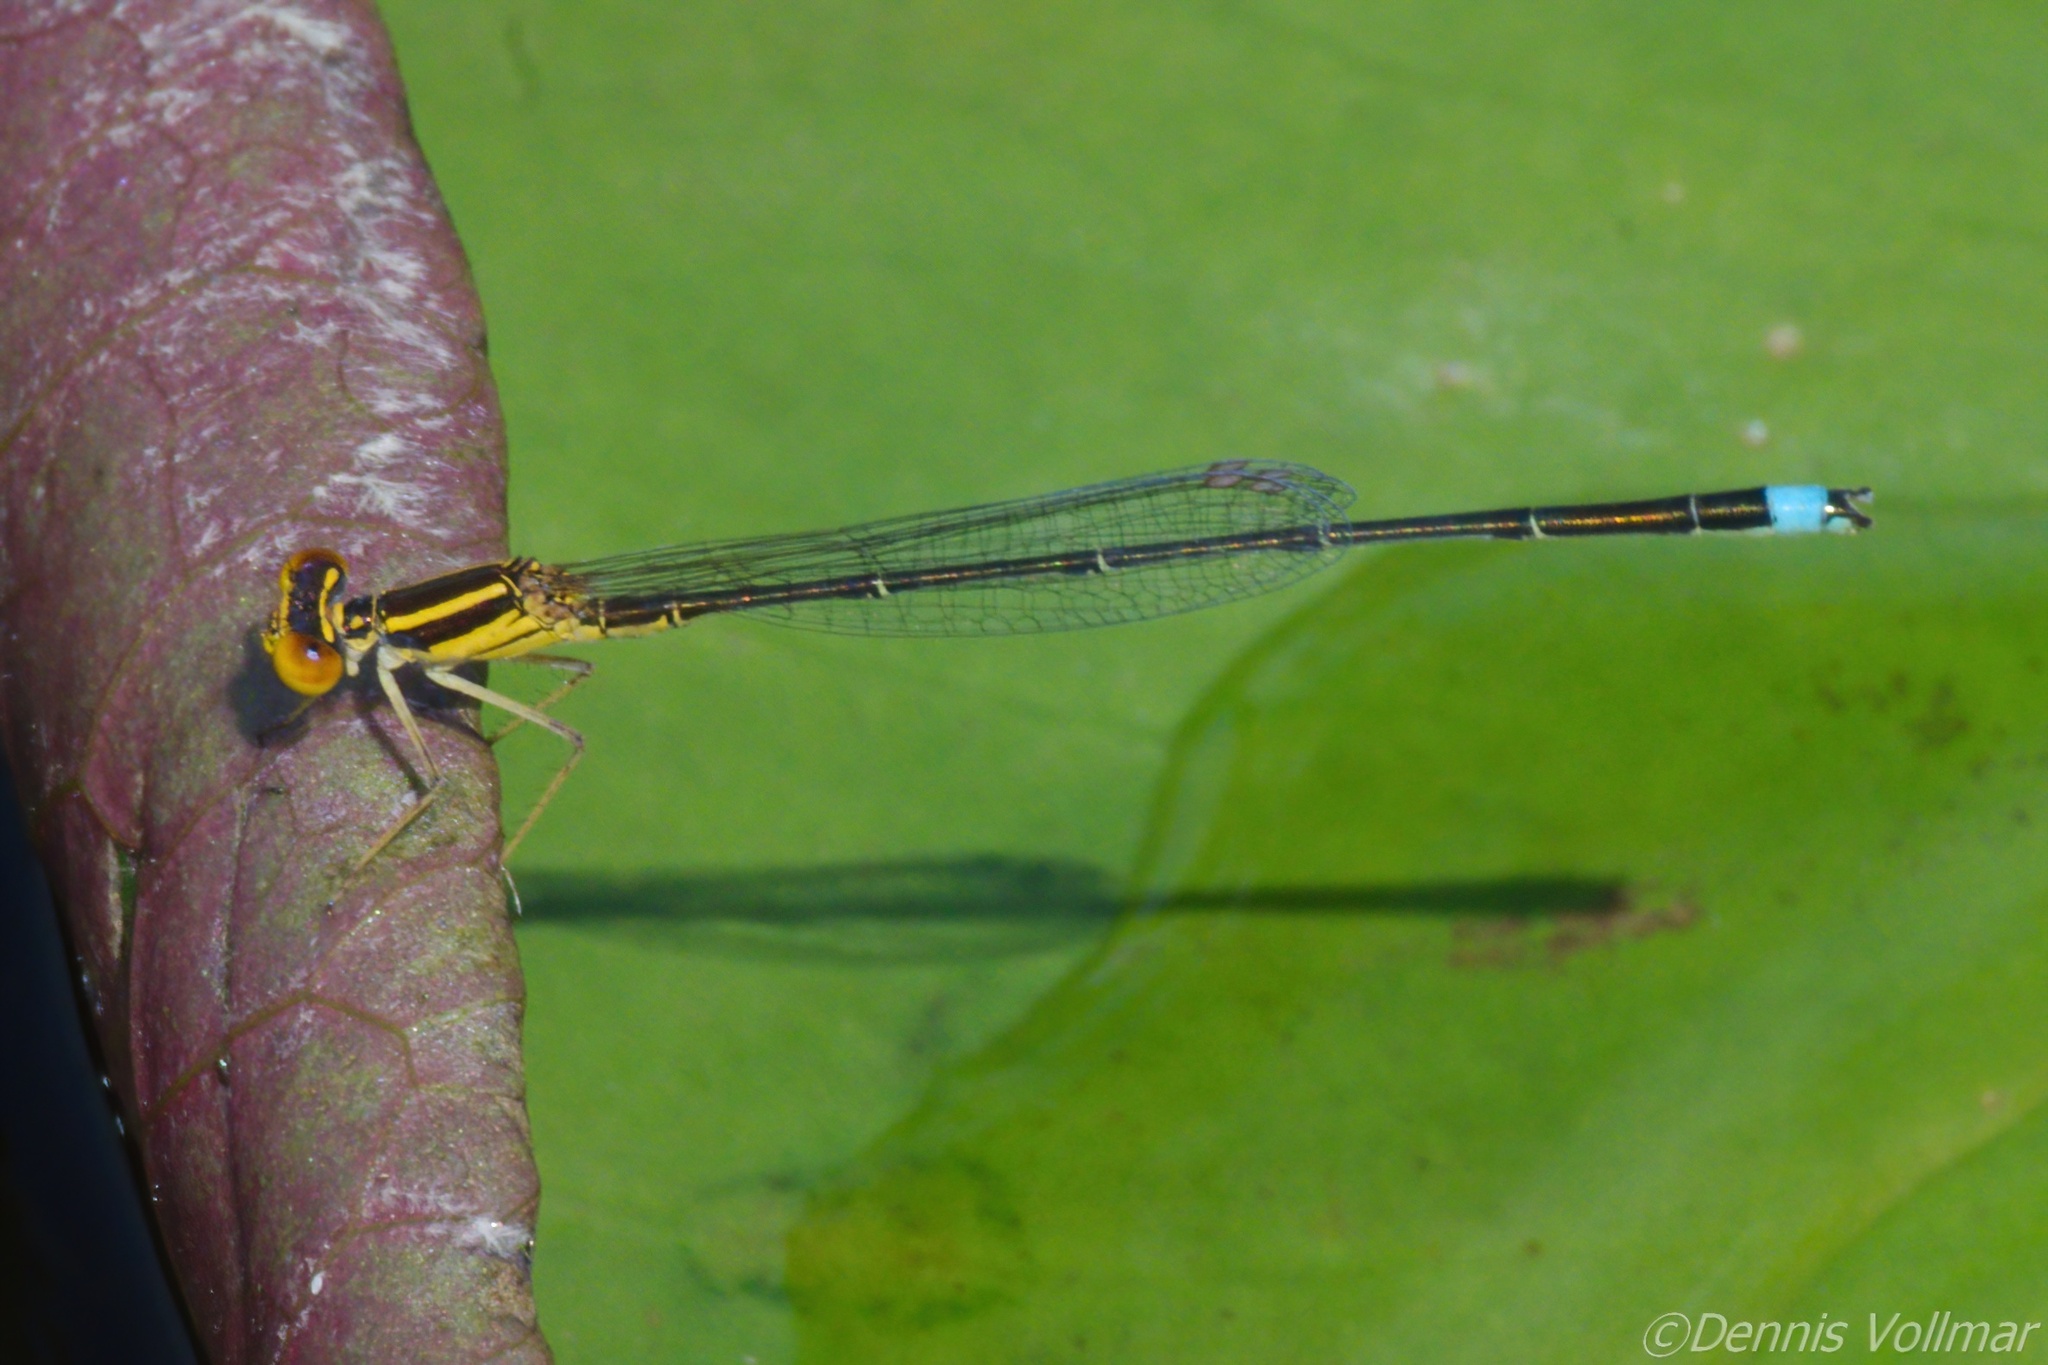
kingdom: Animalia
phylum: Arthropoda
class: Insecta
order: Odonata
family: Coenagrionidae
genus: Enallagma
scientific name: Enallagma sulcatum
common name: Golden bluet
